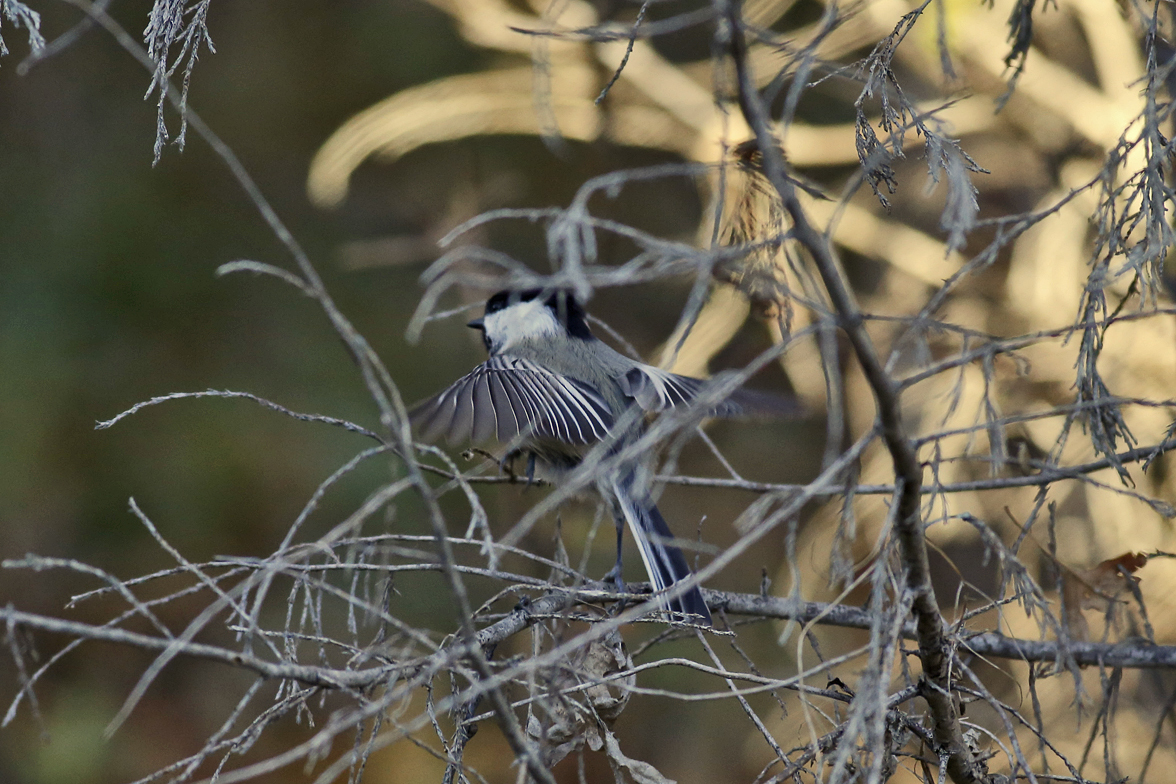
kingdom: Animalia
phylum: Chordata
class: Aves
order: Passeriformes
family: Paridae
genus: Poecile
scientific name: Poecile atricapillus
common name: Black-capped chickadee
